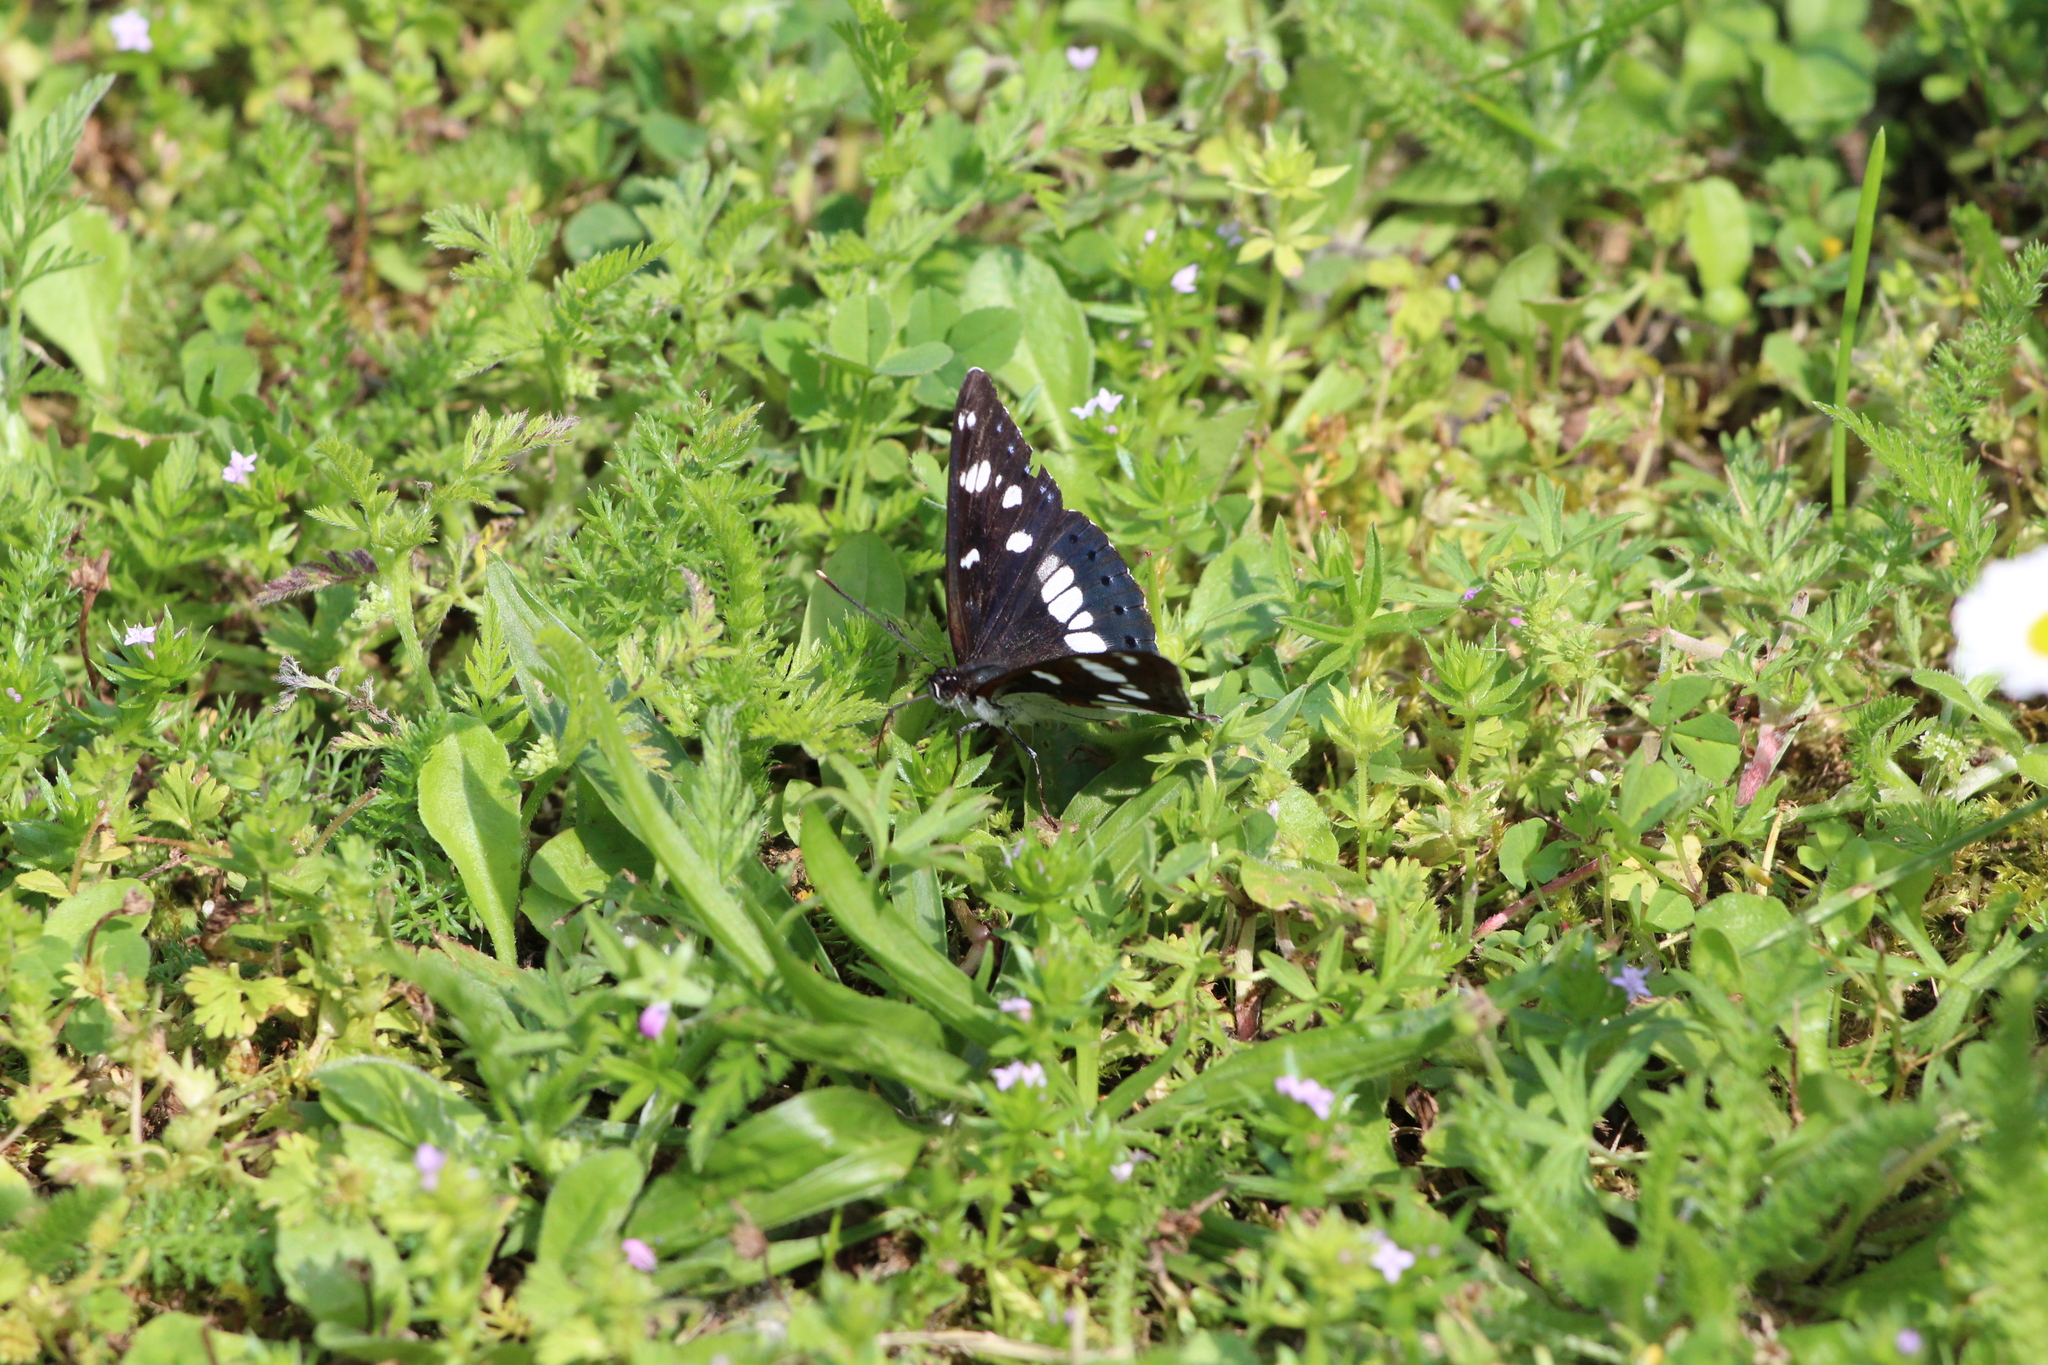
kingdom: Animalia
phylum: Arthropoda
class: Insecta
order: Lepidoptera
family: Nymphalidae
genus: Limenitis
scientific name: Limenitis reducta
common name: Southern white admiral
